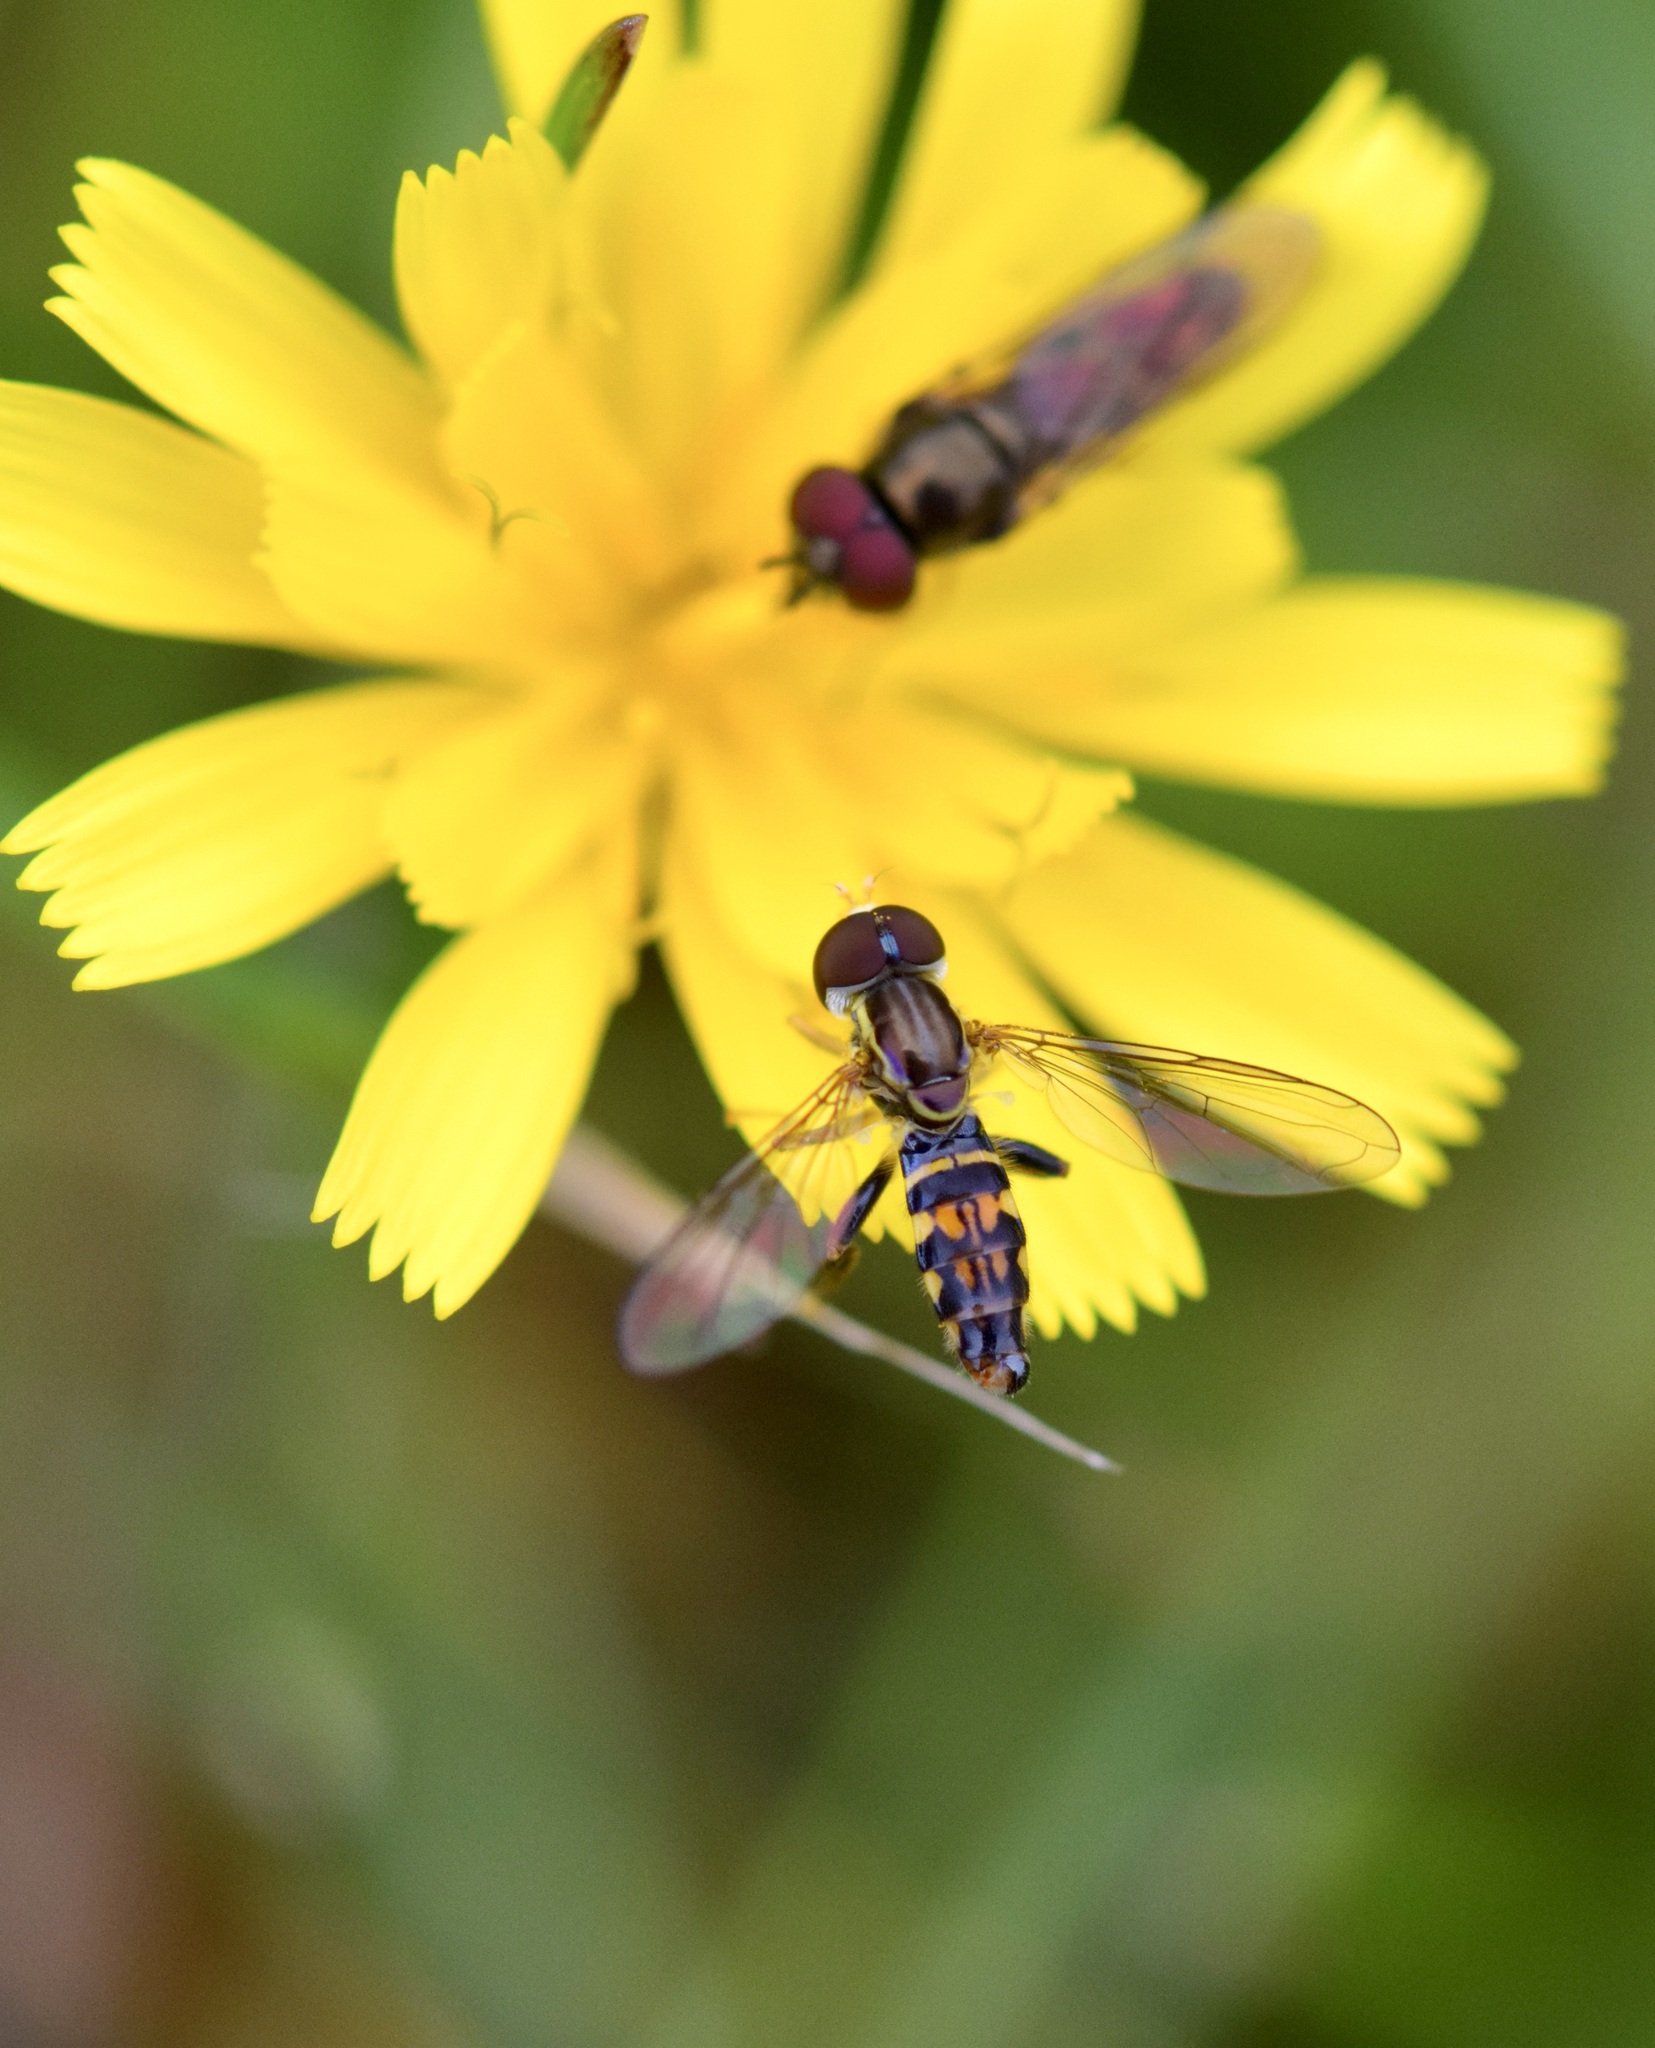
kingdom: Animalia
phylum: Arthropoda
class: Insecta
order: Diptera
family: Syrphidae
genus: Toxomerus
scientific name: Toxomerus geminatus
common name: Eastern calligrapher
